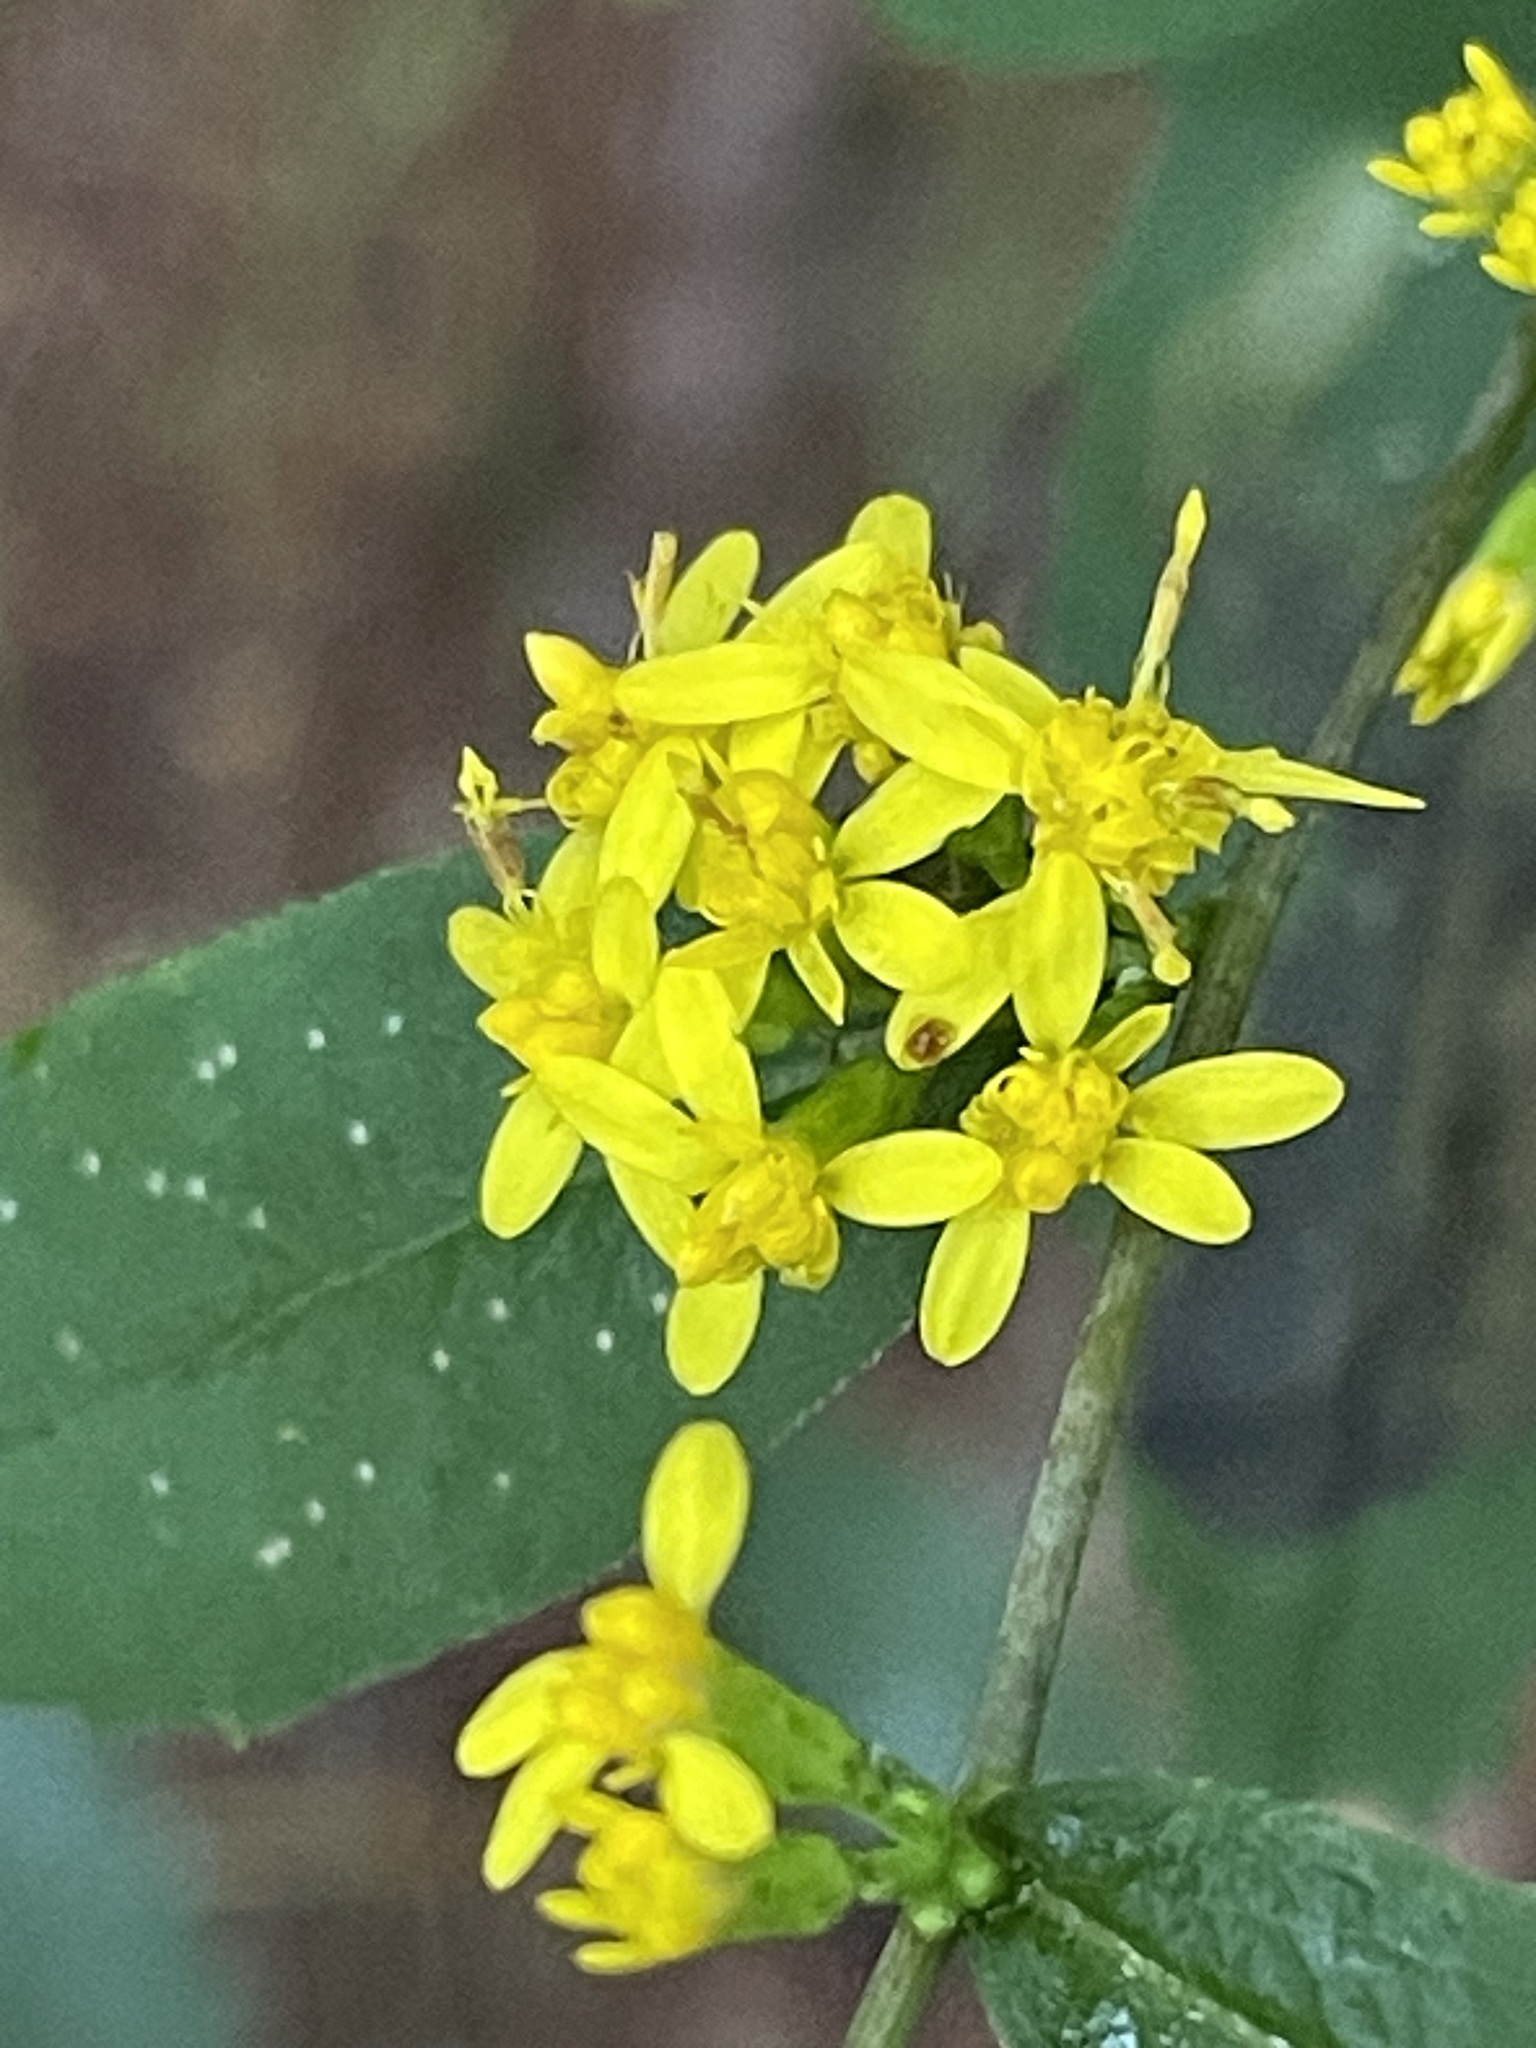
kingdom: Plantae
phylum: Tracheophyta
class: Magnoliopsida
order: Asterales
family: Asteraceae
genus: Solidago
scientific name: Solidago caesia
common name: Woodland goldenrod
